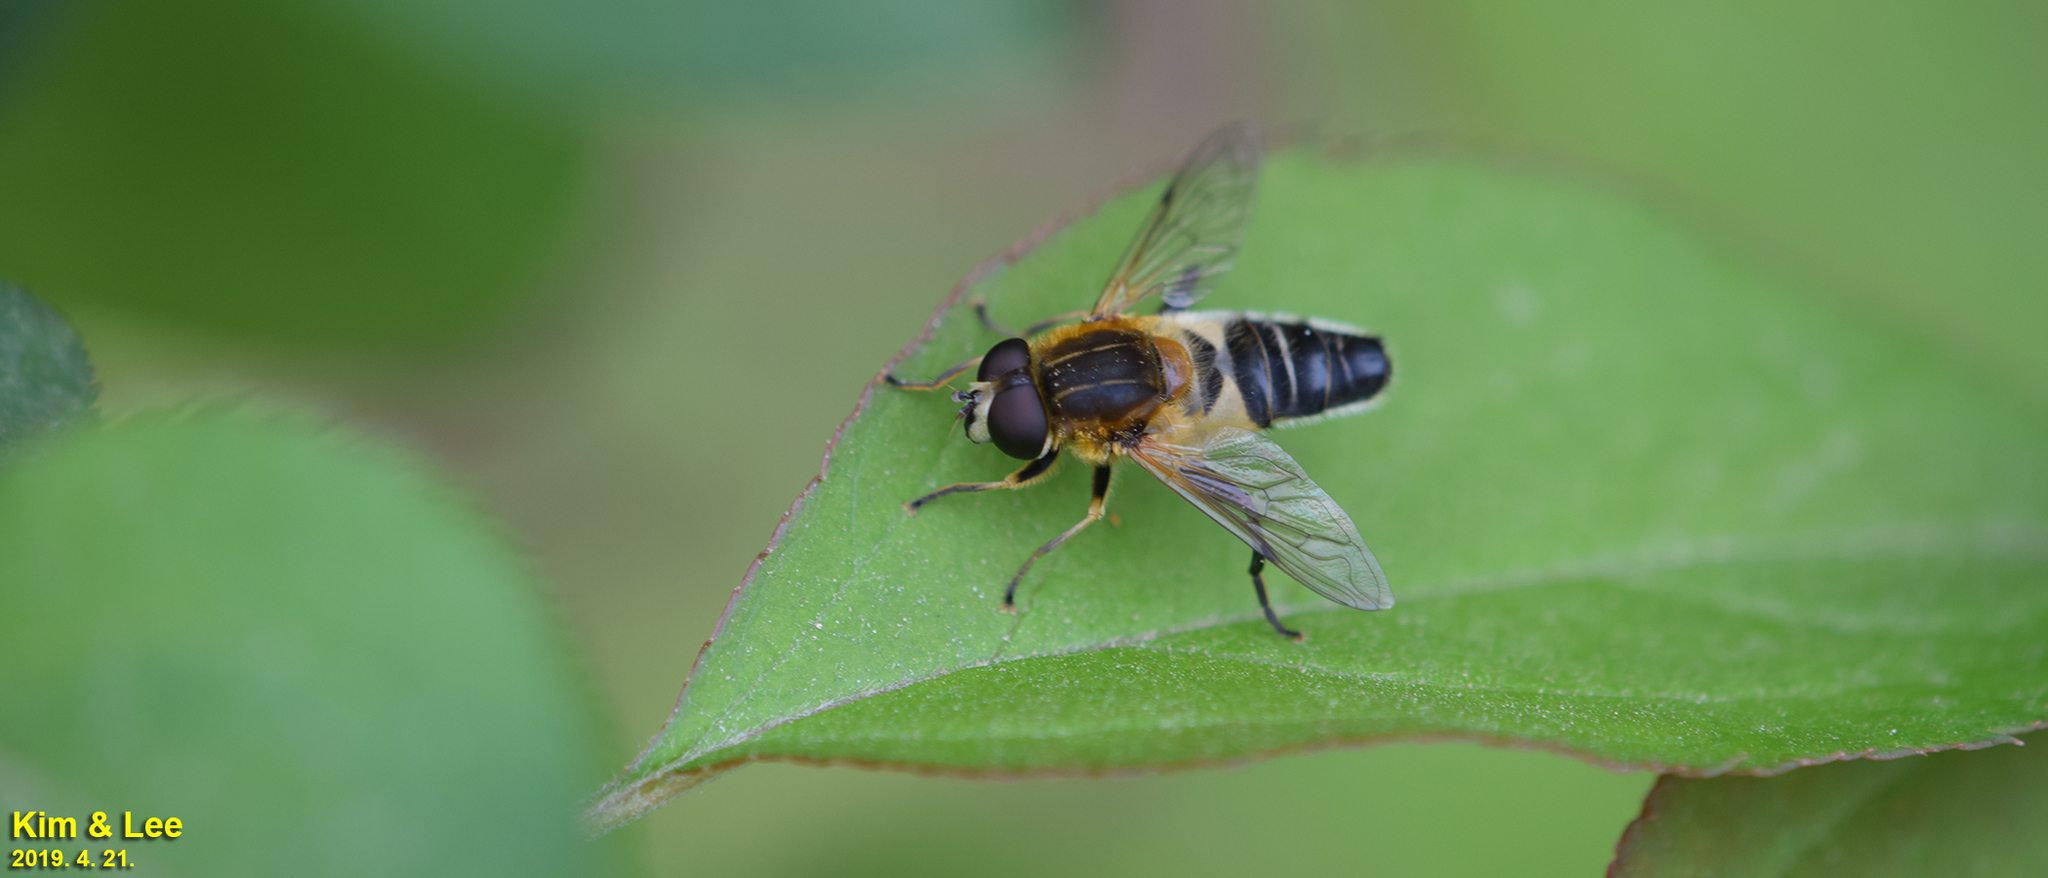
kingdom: Animalia
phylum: Arthropoda
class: Insecta
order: Diptera
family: Syrphidae
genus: Helophilus
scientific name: Helophilus eristaloideus
